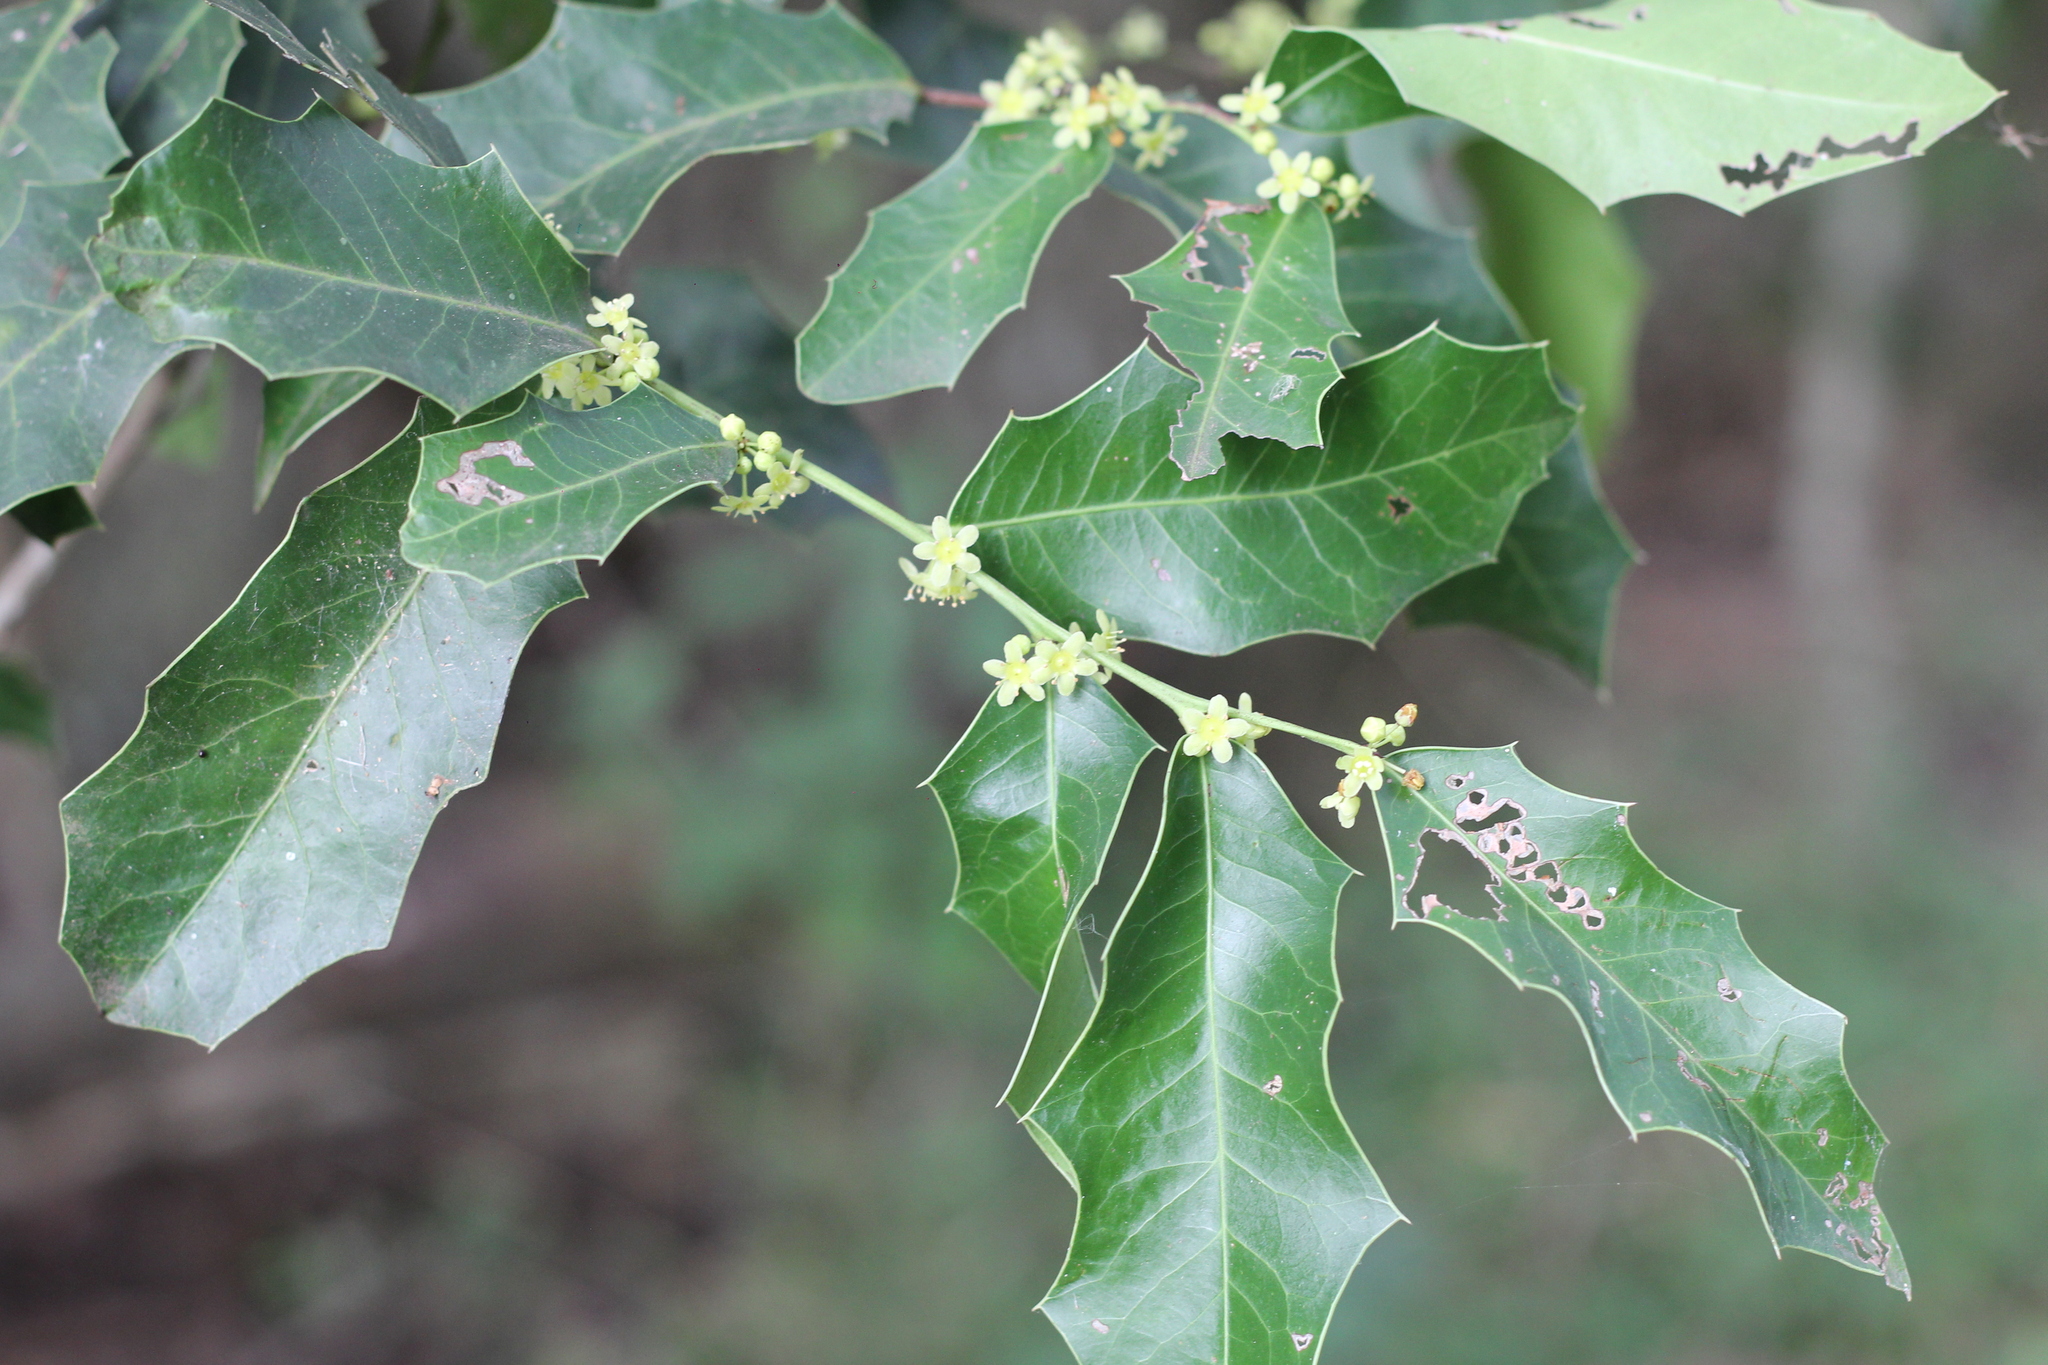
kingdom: Plantae
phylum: Tracheophyta
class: Magnoliopsida
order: Celastrales
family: Celastraceae
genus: Monteverdia
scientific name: Monteverdia
